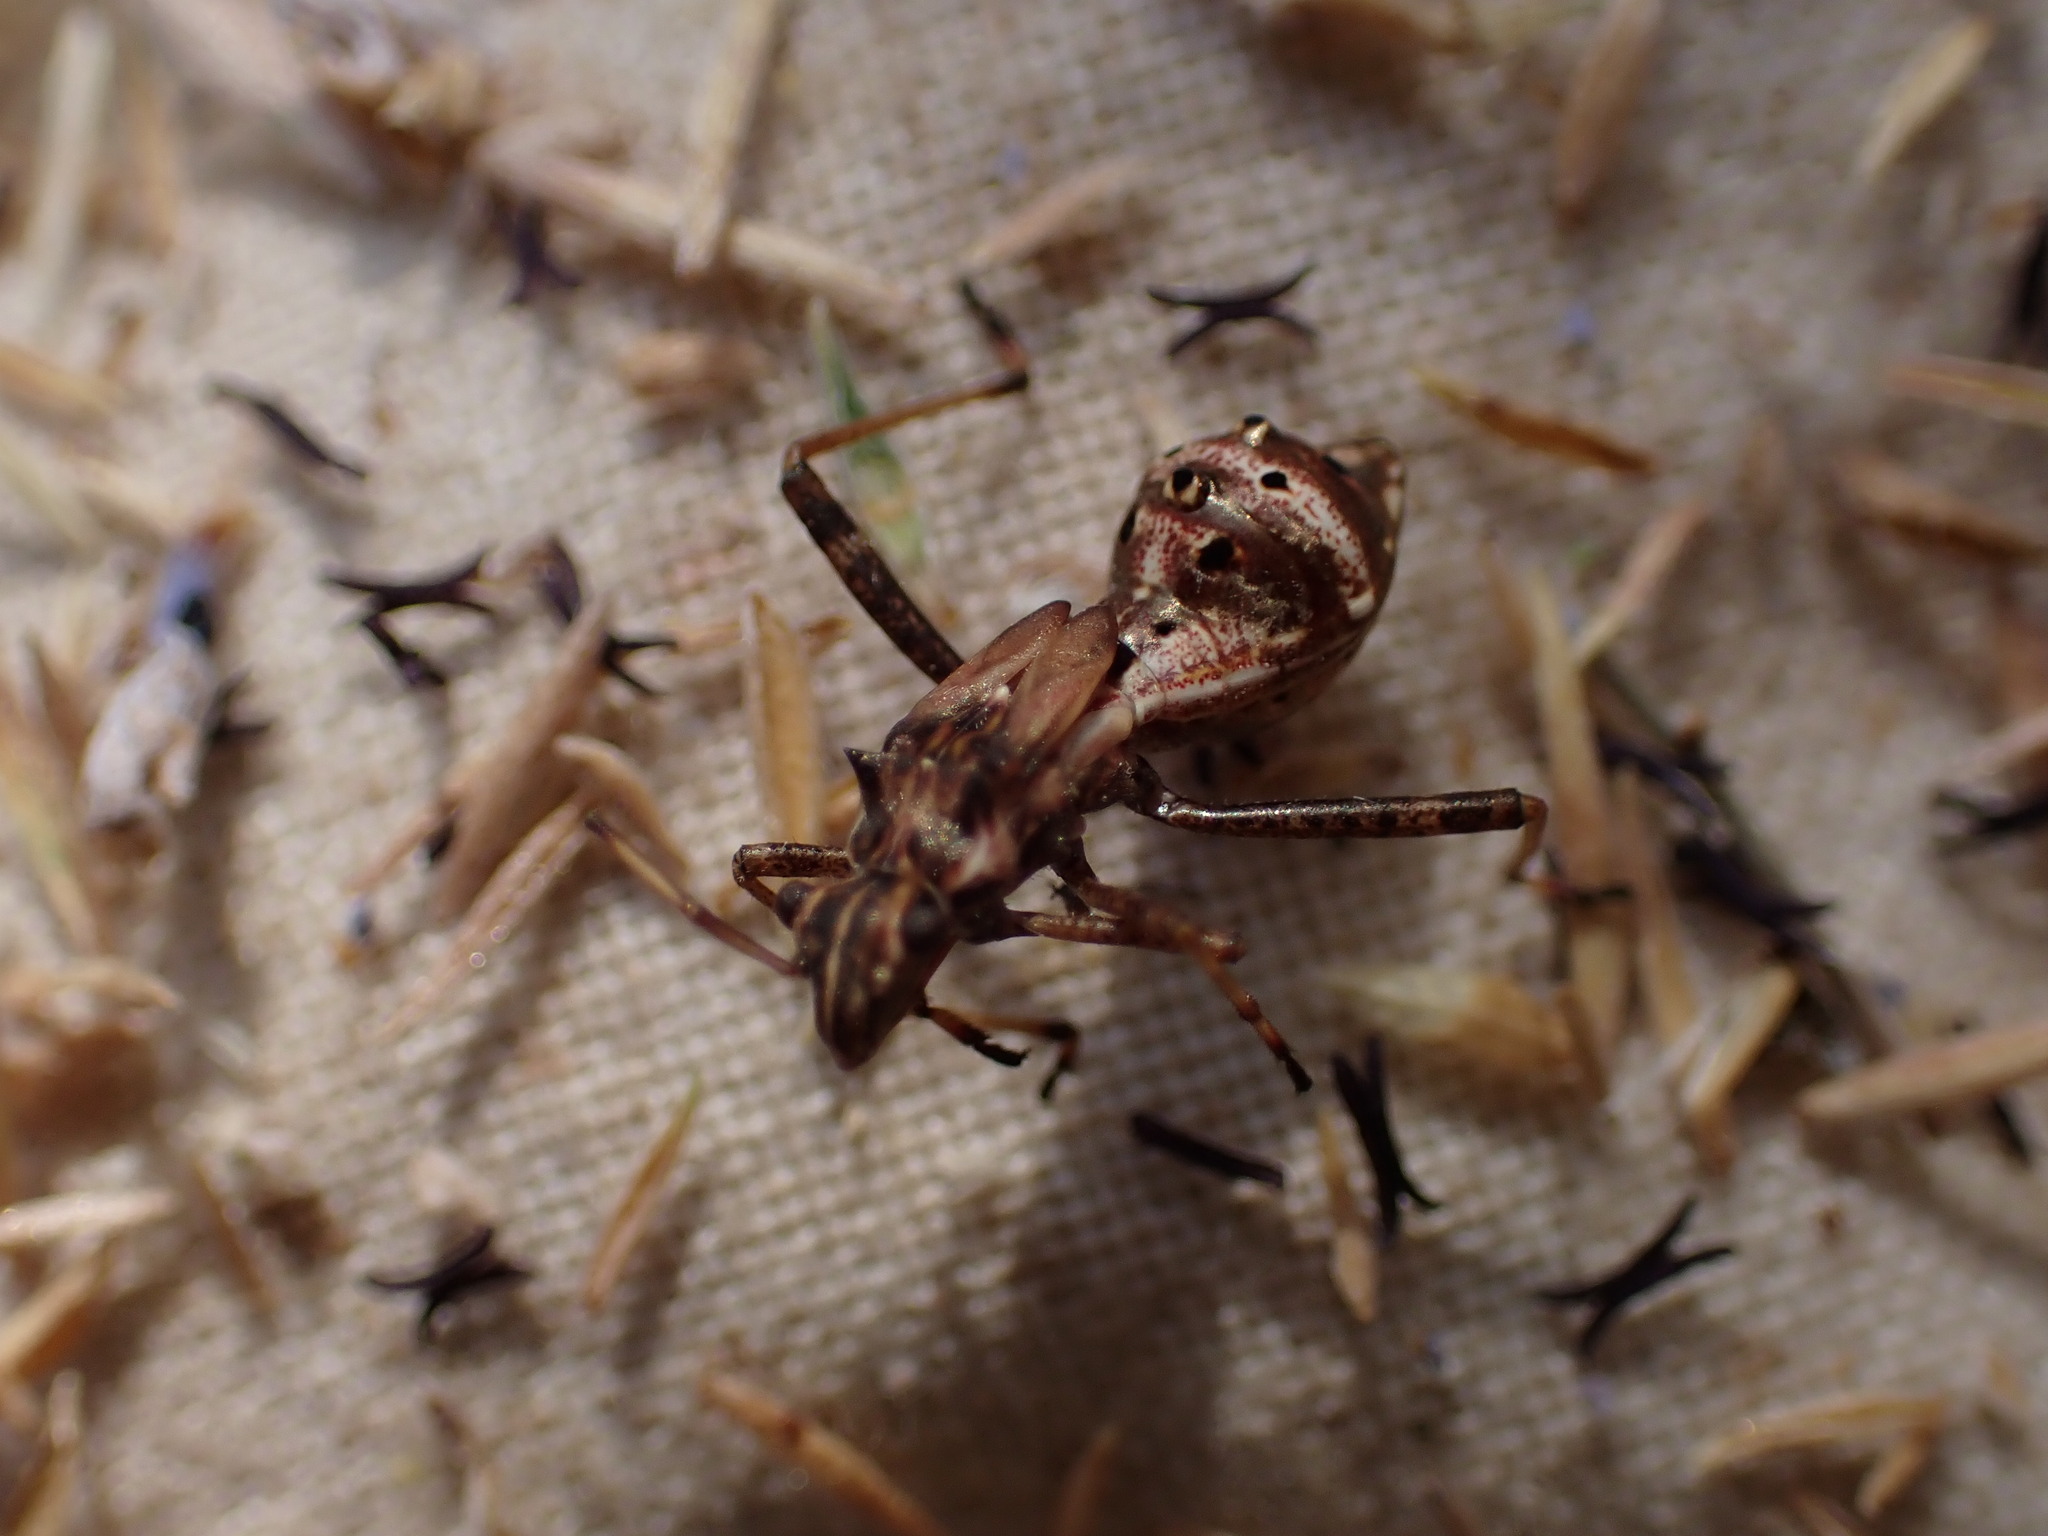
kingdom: Animalia
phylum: Arthropoda
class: Insecta
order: Hemiptera
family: Alydidae
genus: Camptopus
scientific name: Camptopus lateralis
